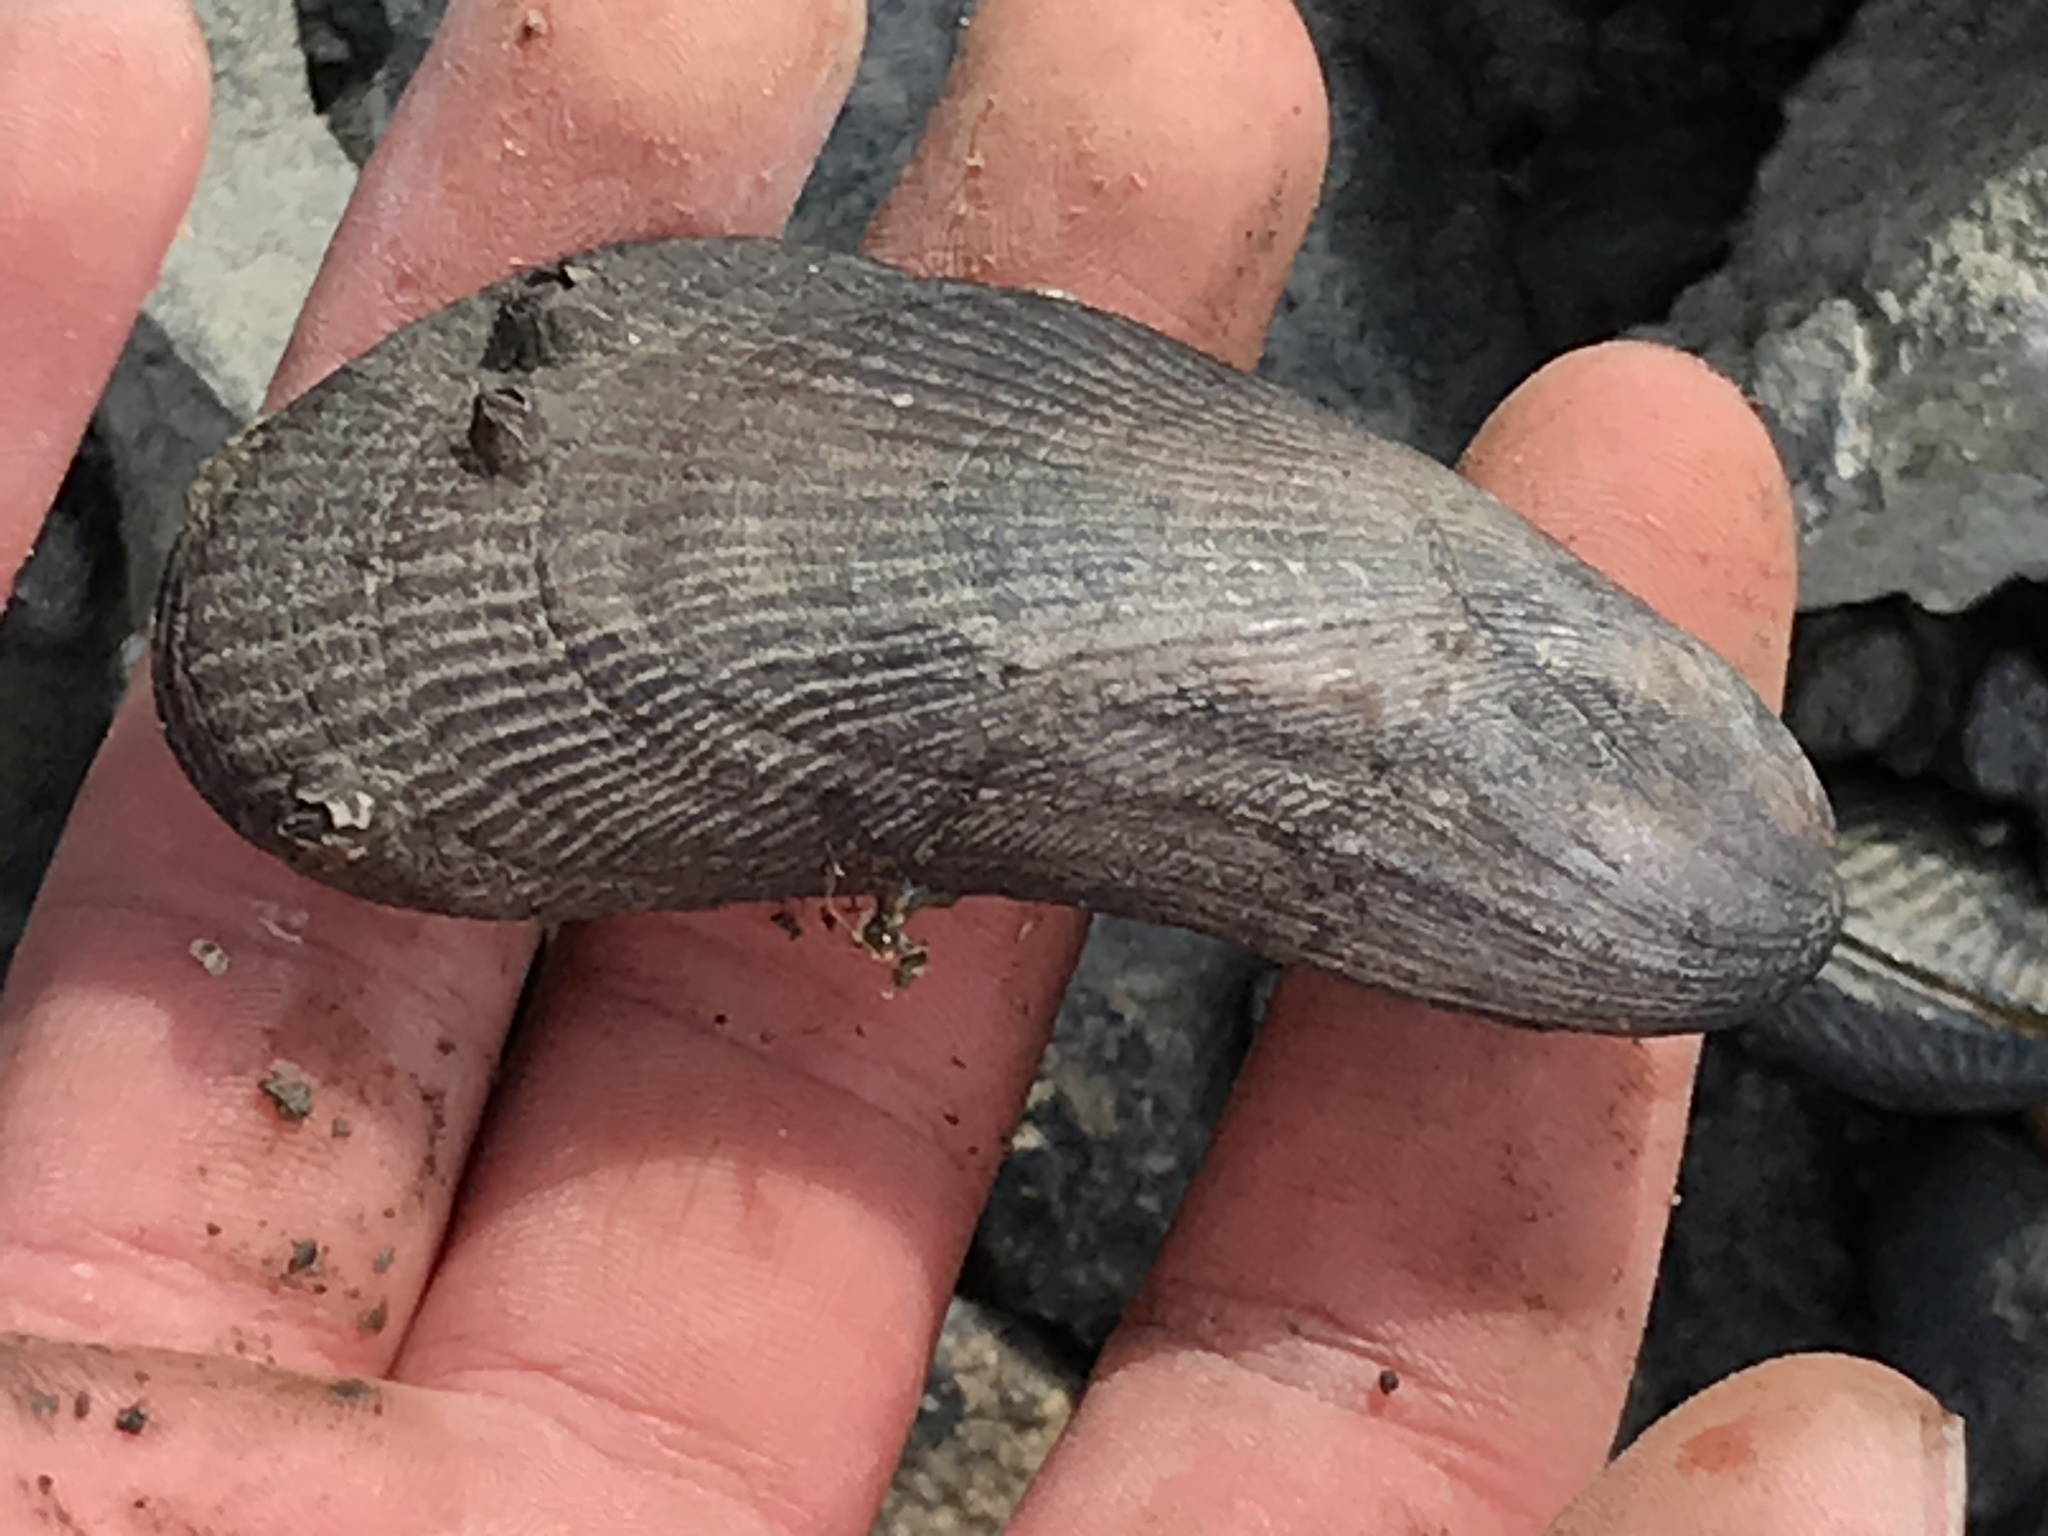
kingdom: Animalia
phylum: Mollusca
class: Bivalvia
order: Mytilida
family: Mytilidae
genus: Geukensia
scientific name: Geukensia demissa
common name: Ribbed mussel
